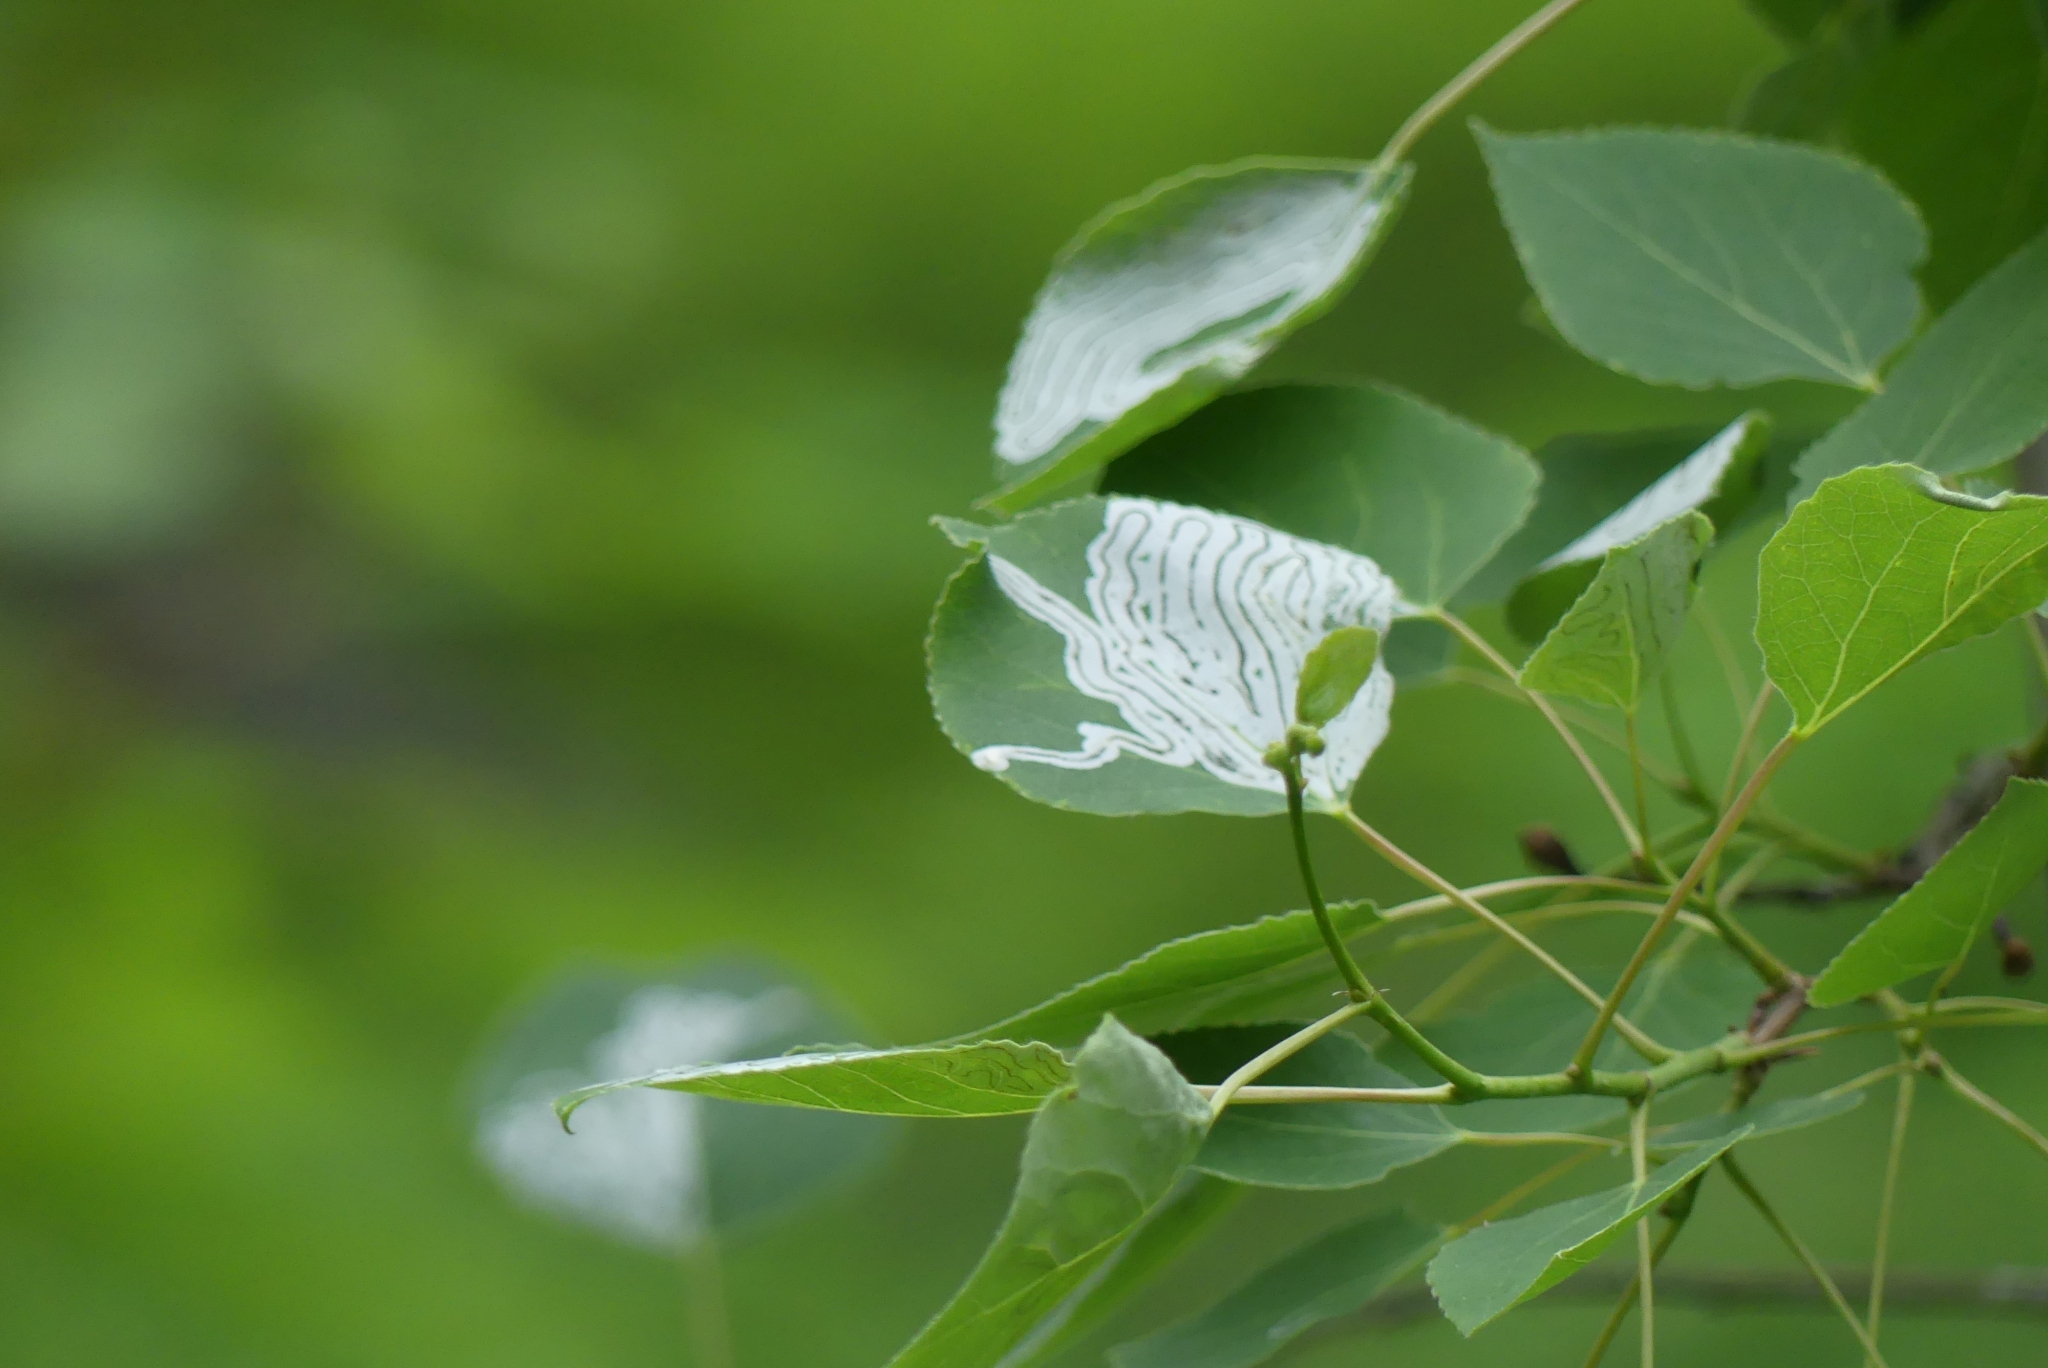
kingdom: Animalia
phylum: Arthropoda
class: Insecta
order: Lepidoptera
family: Gracillariidae
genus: Phyllocnistis
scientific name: Phyllocnistis populiella
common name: Aspen serpentine leafminer moth
